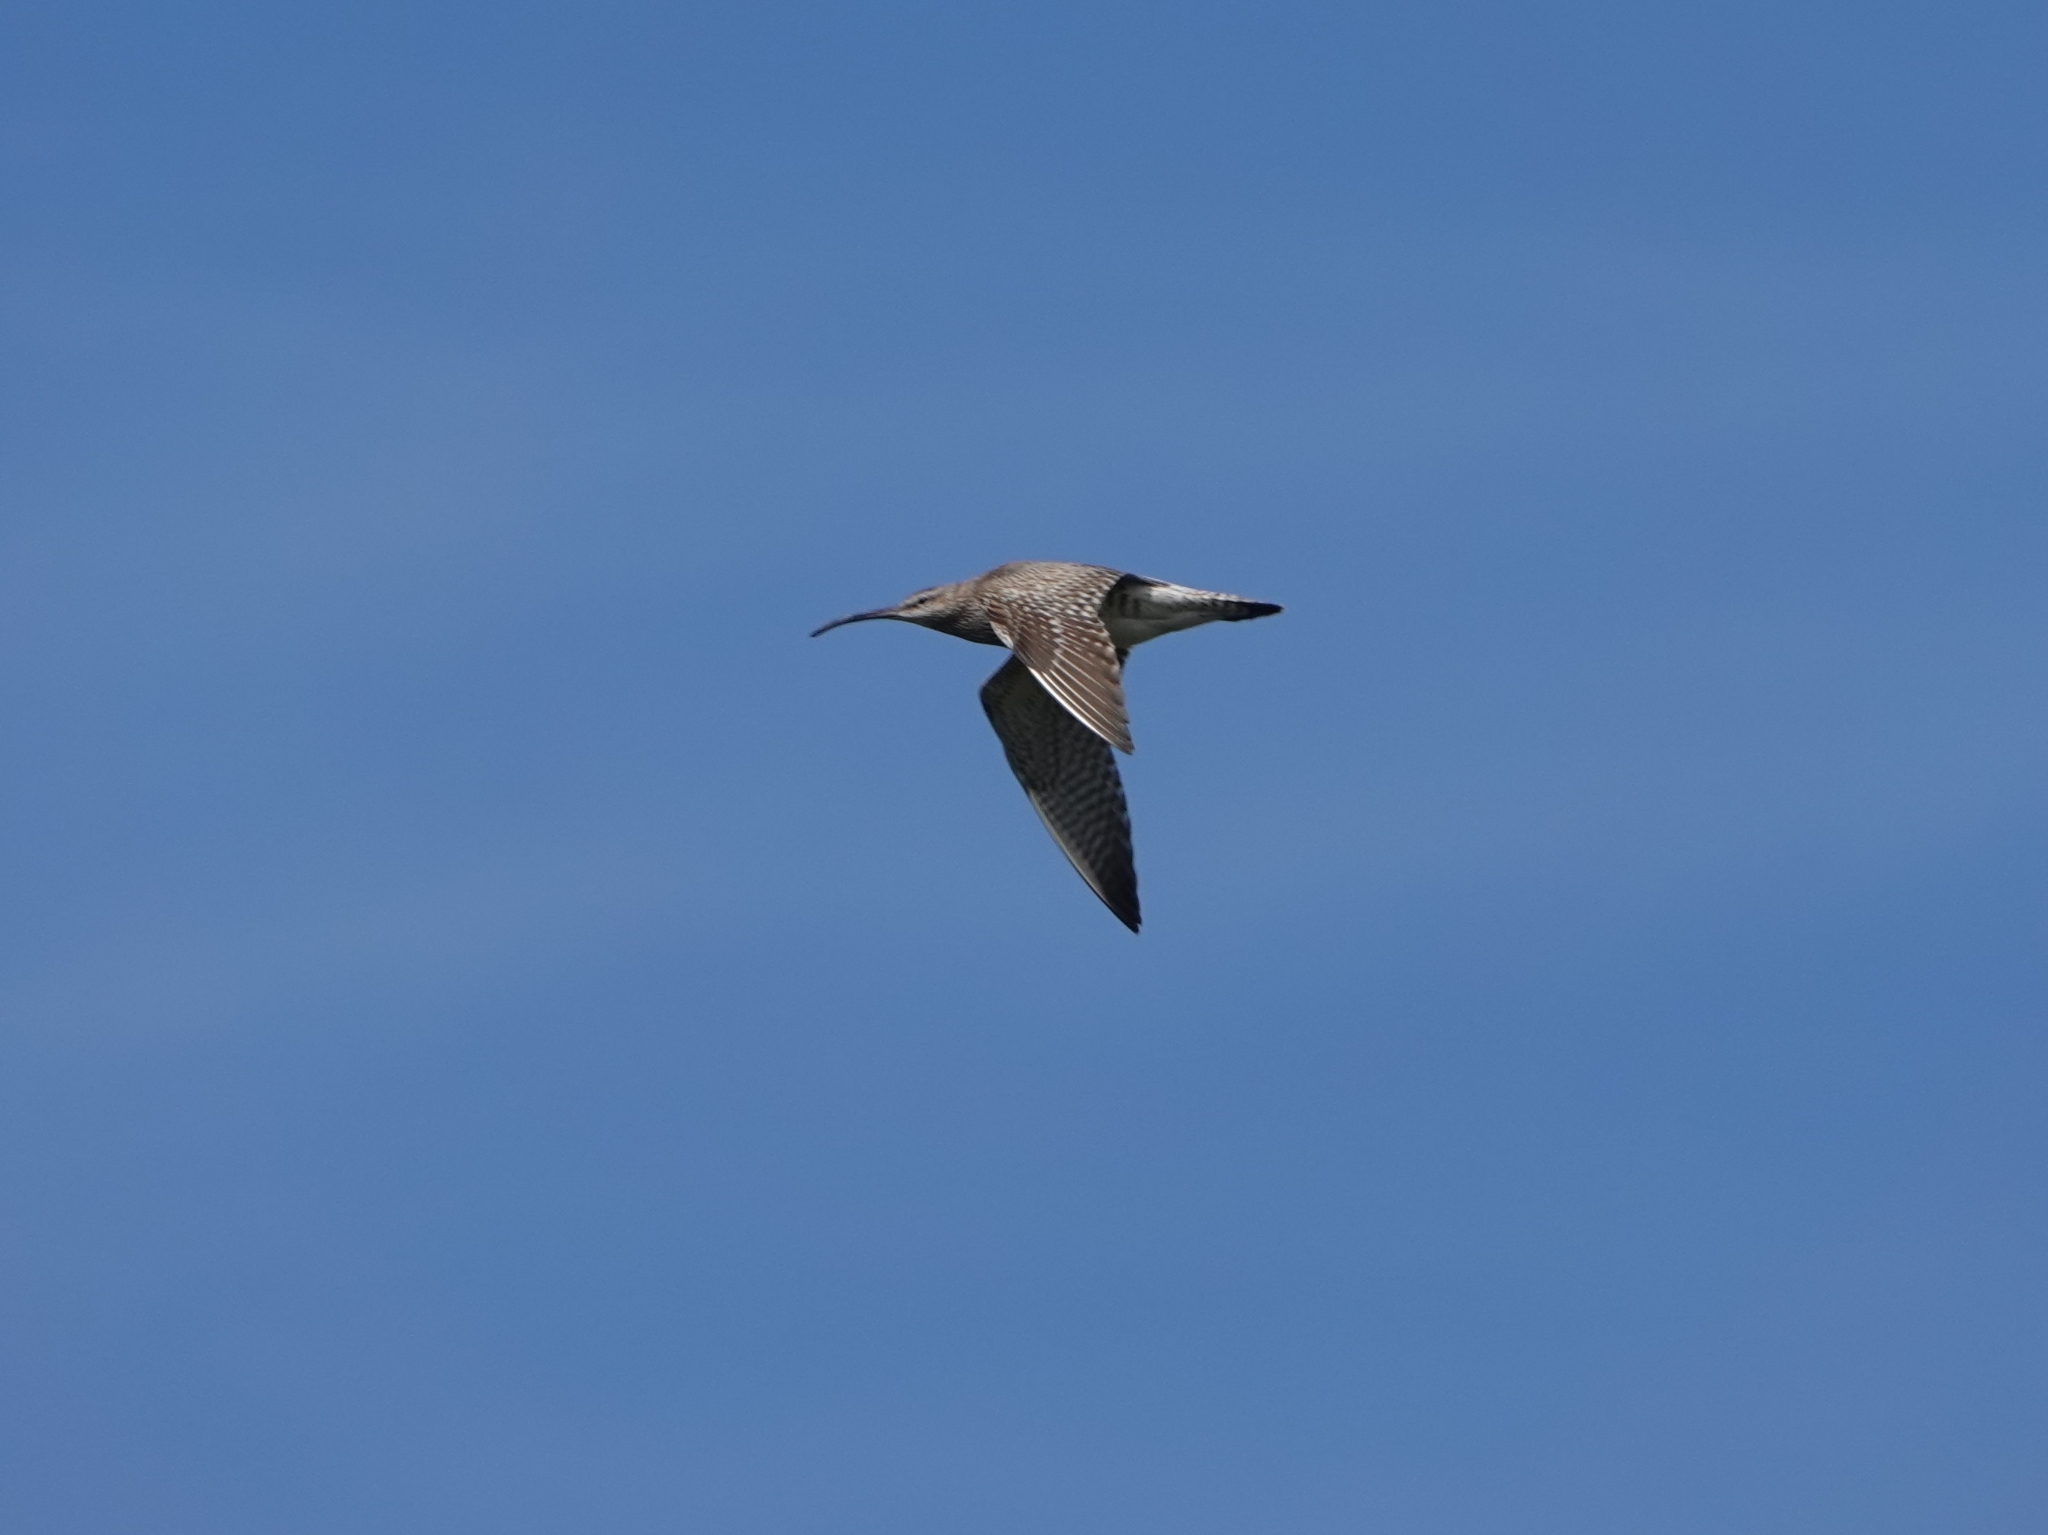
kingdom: Animalia
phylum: Chordata
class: Aves
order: Charadriiformes
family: Scolopacidae
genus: Numenius
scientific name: Numenius phaeopus
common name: Whimbrel
